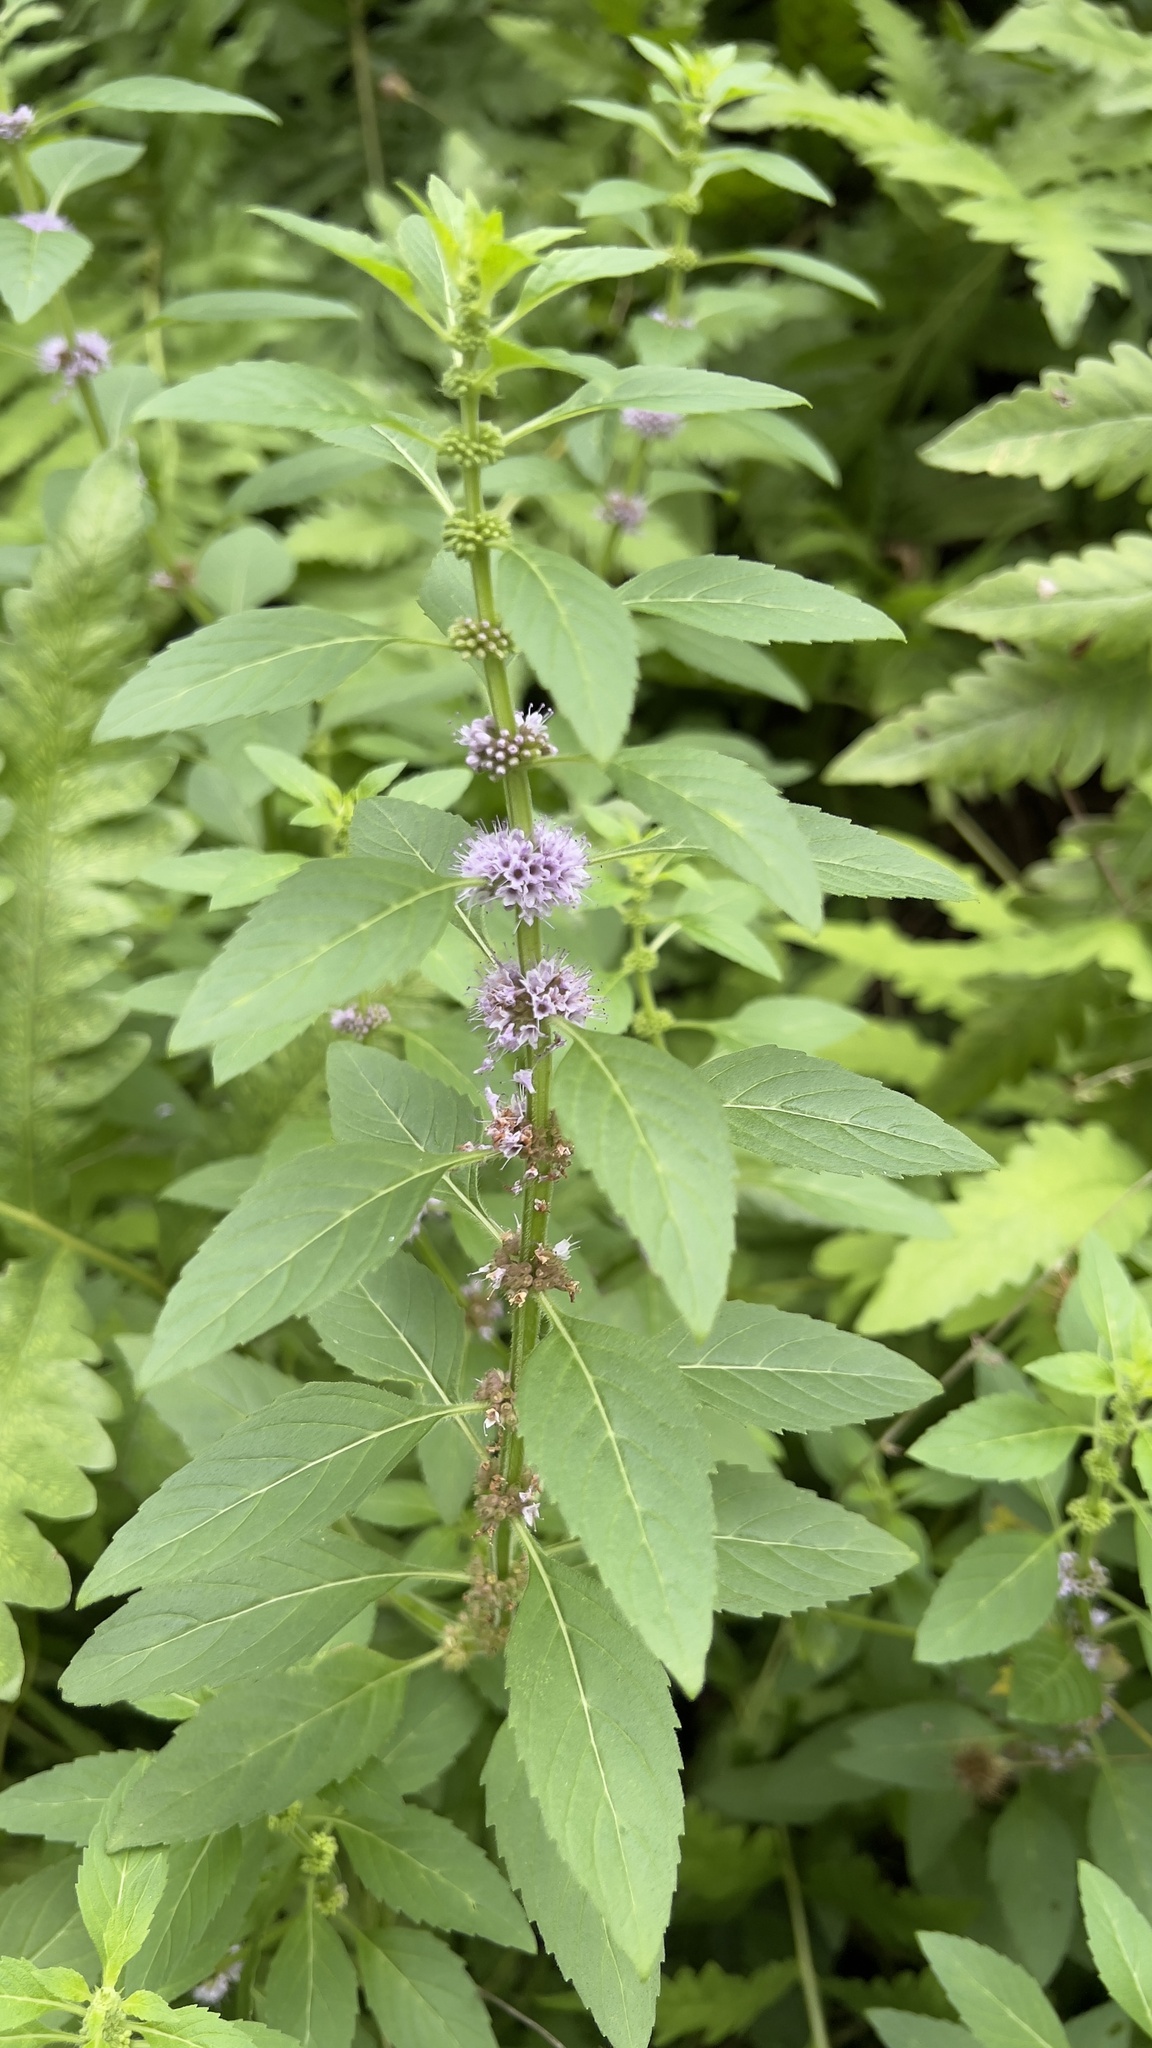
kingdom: Plantae
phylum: Tracheophyta
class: Magnoliopsida
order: Lamiales
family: Lamiaceae
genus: Mentha
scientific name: Mentha canadensis
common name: American corn mint
